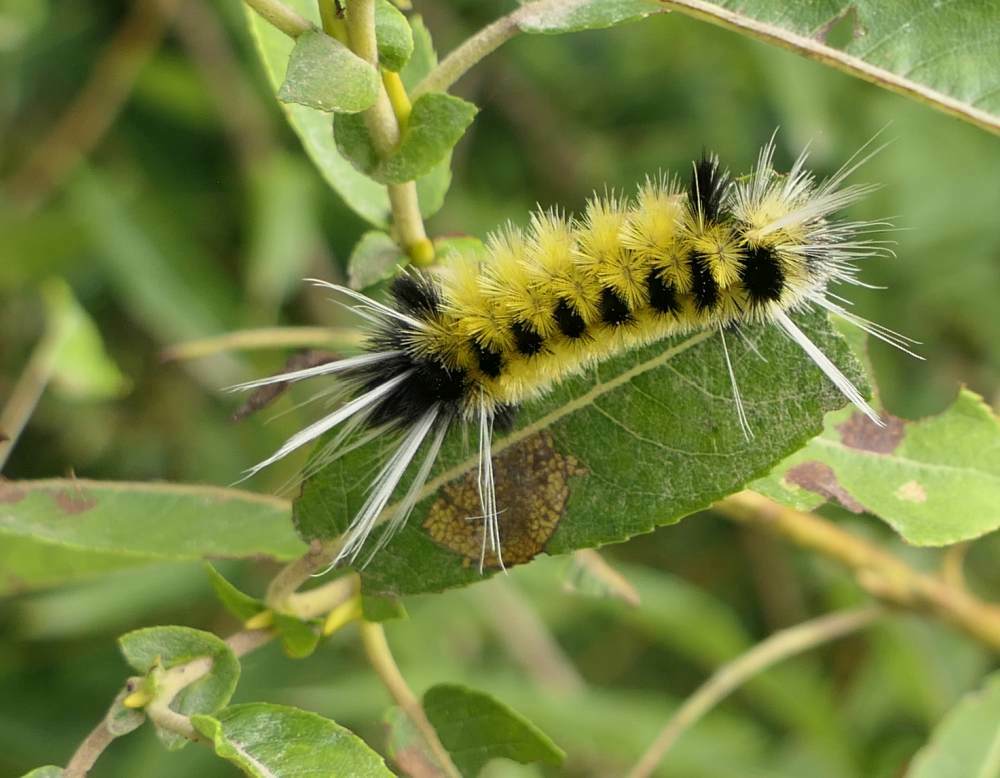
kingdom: Animalia
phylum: Arthropoda
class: Insecta
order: Lepidoptera
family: Erebidae
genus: Lophocampa
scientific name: Lophocampa maculata
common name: Spotted tussock moth
